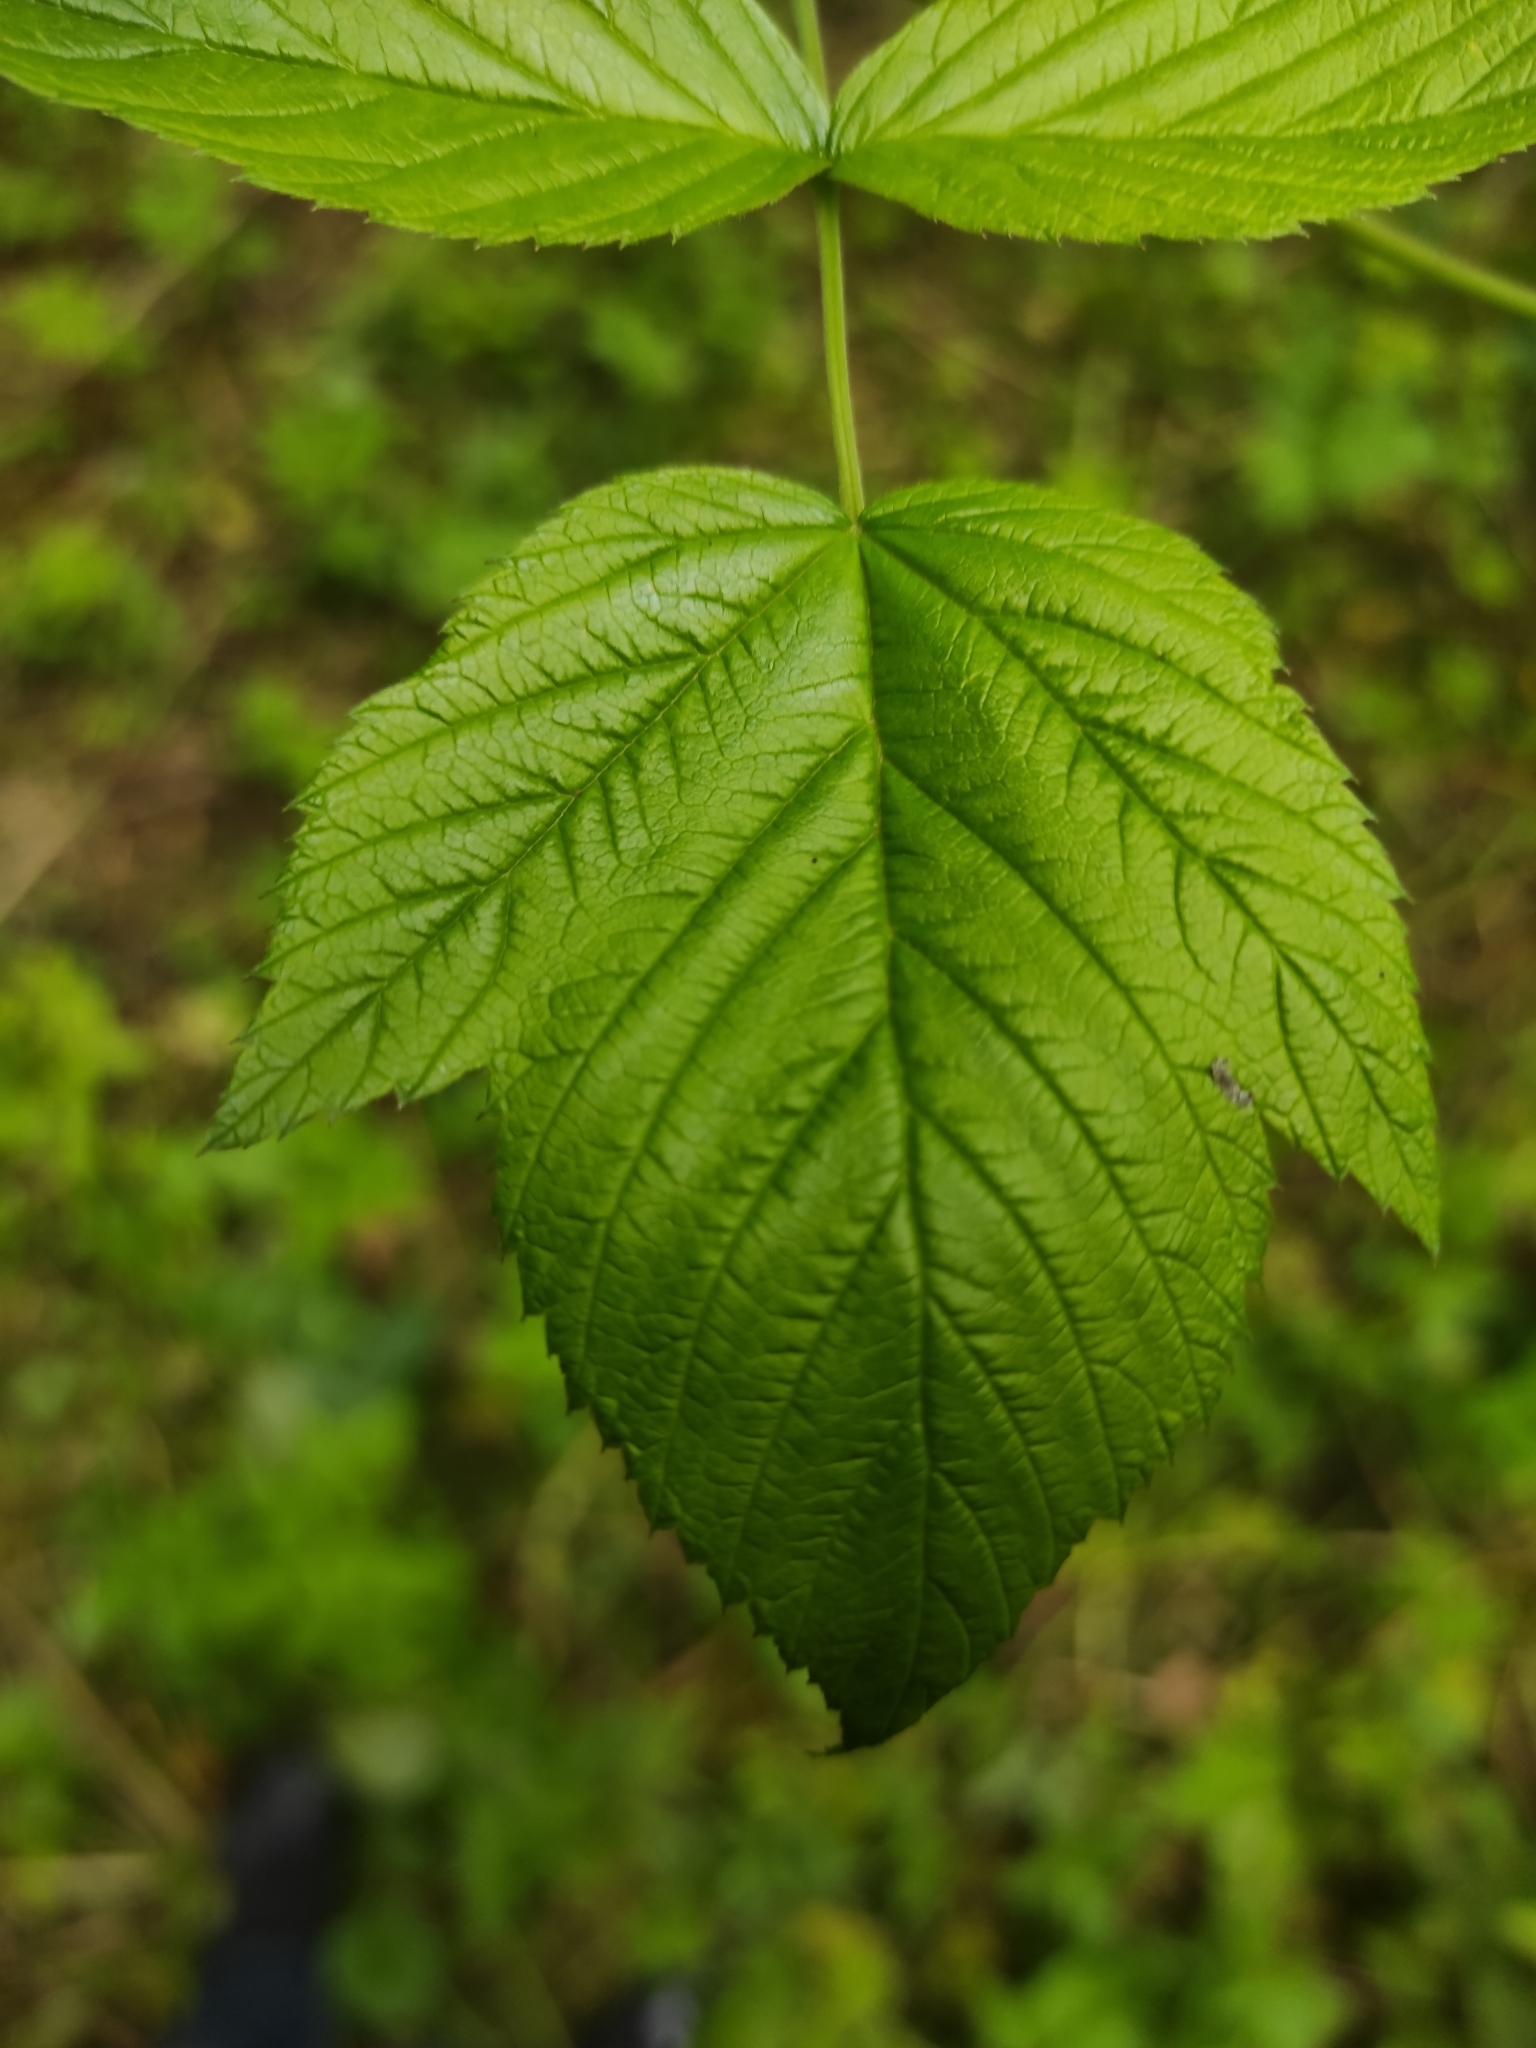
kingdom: Plantae
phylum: Tracheophyta
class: Magnoliopsida
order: Rosales
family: Rosaceae
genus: Rubus
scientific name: Rubus idaeus
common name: Raspberry
